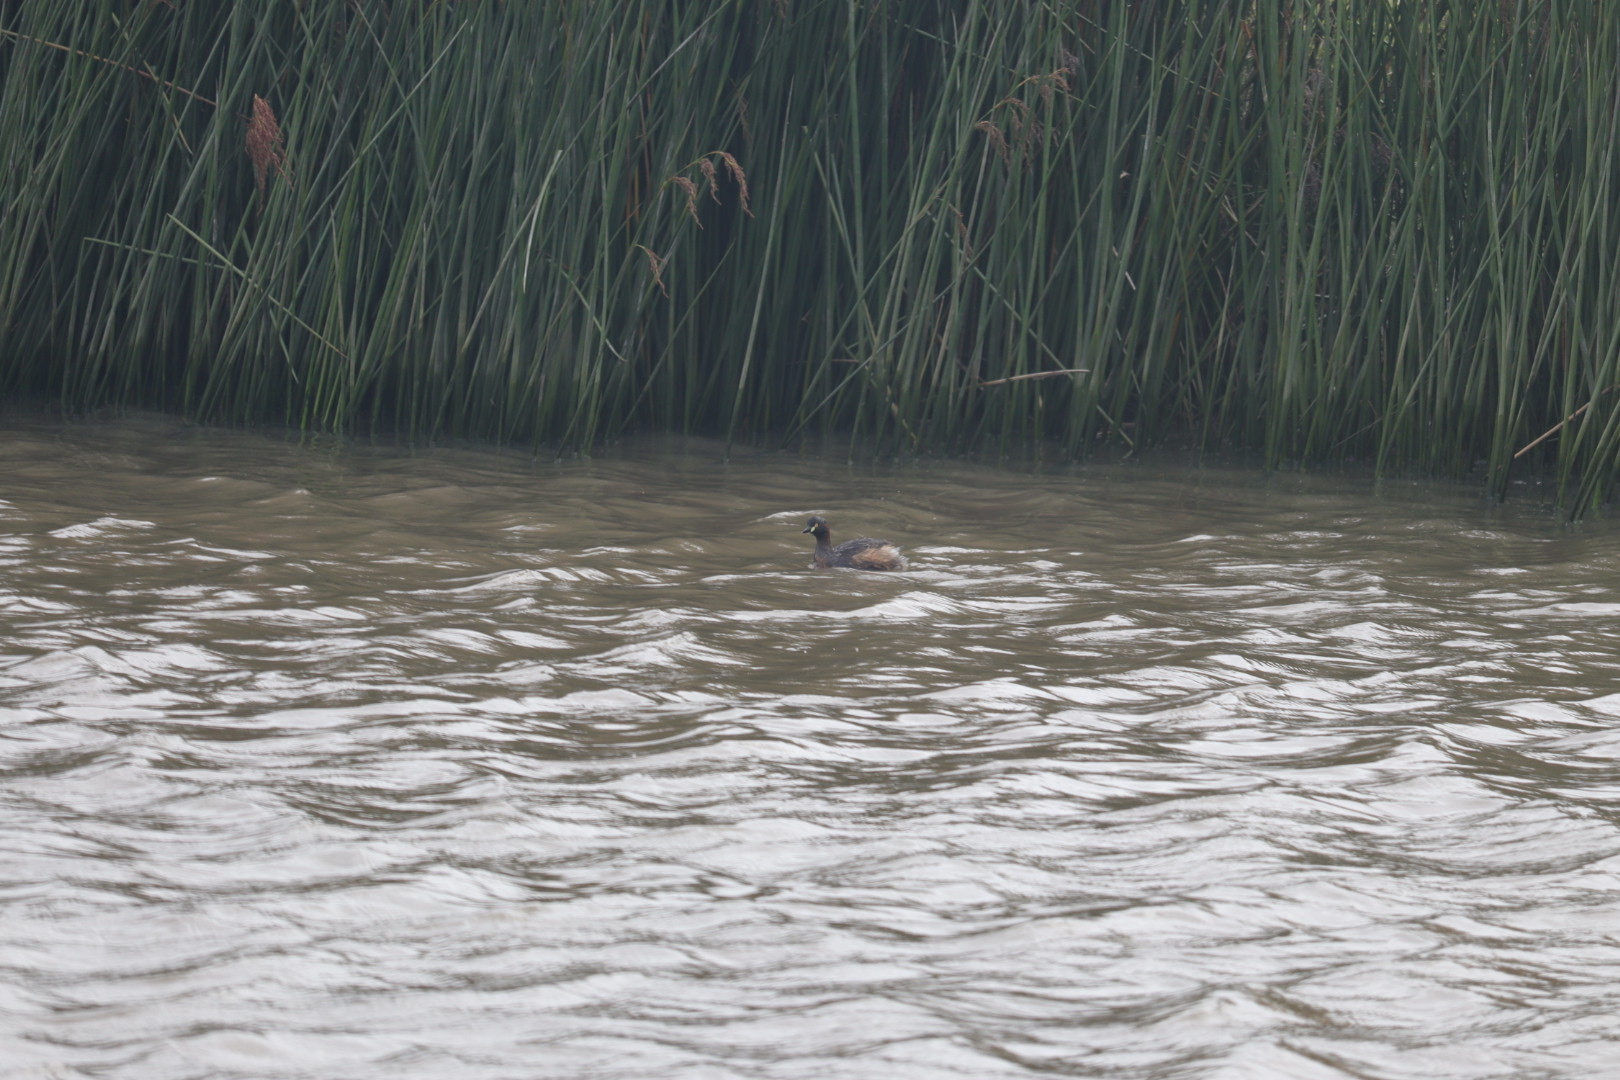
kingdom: Animalia
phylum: Chordata
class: Aves
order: Podicipediformes
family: Podicipedidae
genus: Tachybaptus
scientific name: Tachybaptus novaehollandiae
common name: Australasian grebe
